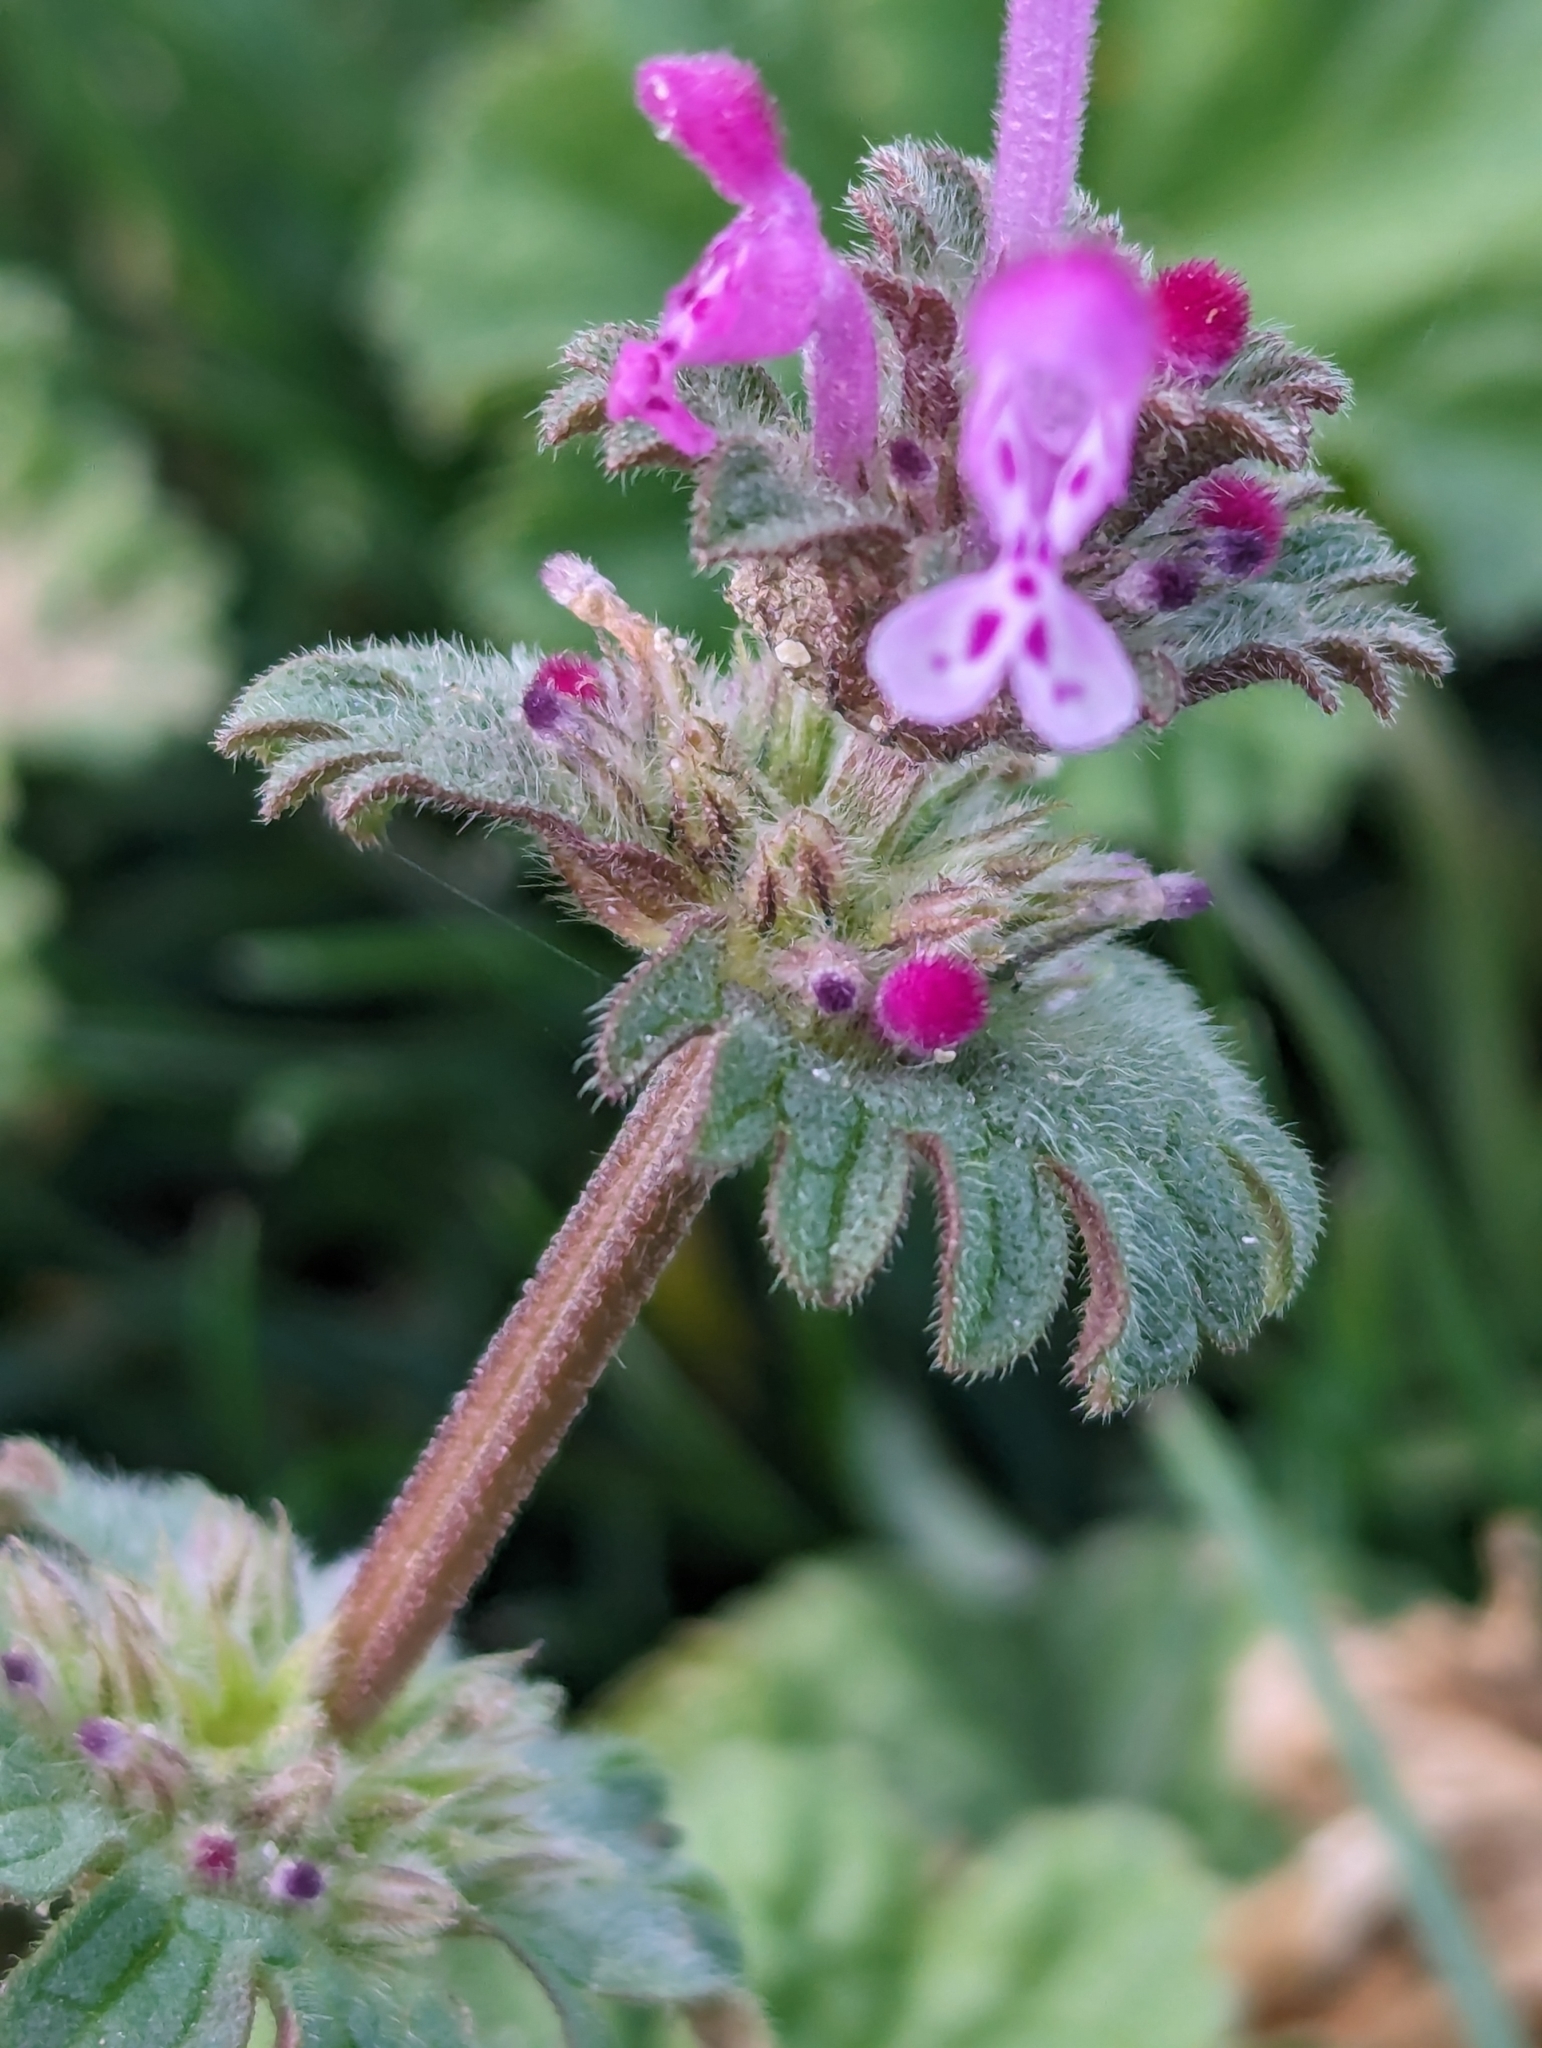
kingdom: Plantae
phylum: Tracheophyta
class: Magnoliopsida
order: Lamiales
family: Lamiaceae
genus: Lamium
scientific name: Lamium amplexicaule
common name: Henbit dead-nettle
